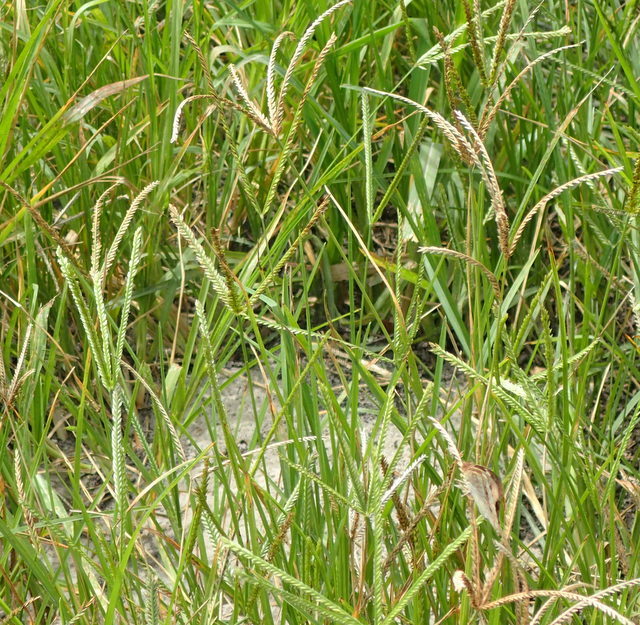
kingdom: Plantae
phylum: Tracheophyta
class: Liliopsida
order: Poales
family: Poaceae
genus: Eleusine
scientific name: Eleusine indica
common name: Yard-grass
